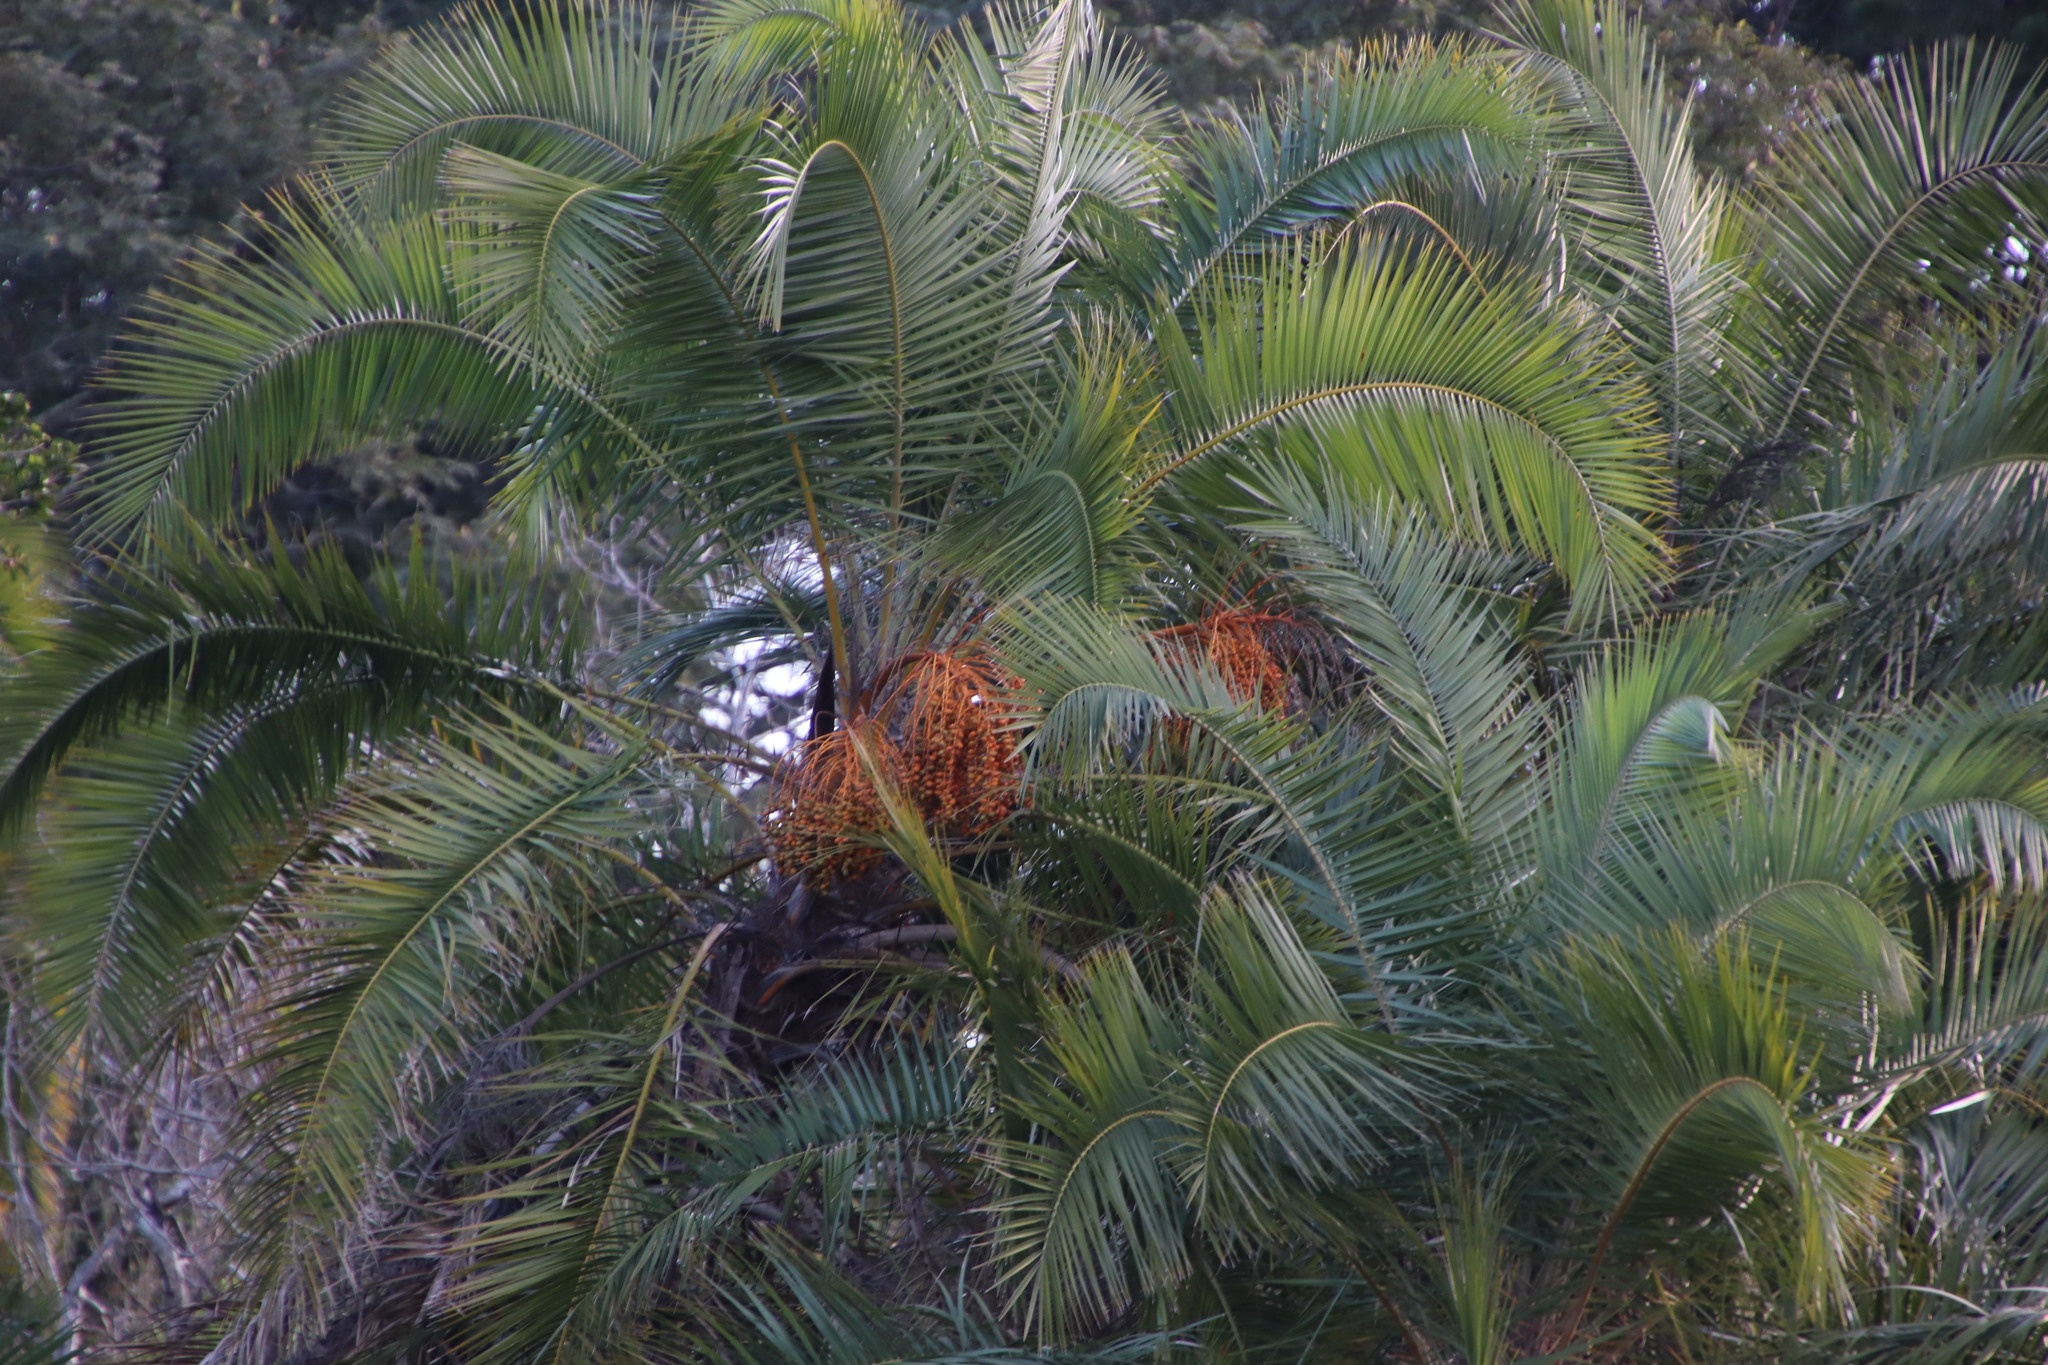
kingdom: Plantae
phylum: Tracheophyta
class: Liliopsida
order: Arecales
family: Arecaceae
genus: Phoenix
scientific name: Phoenix reclinata
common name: Senegal date palm
